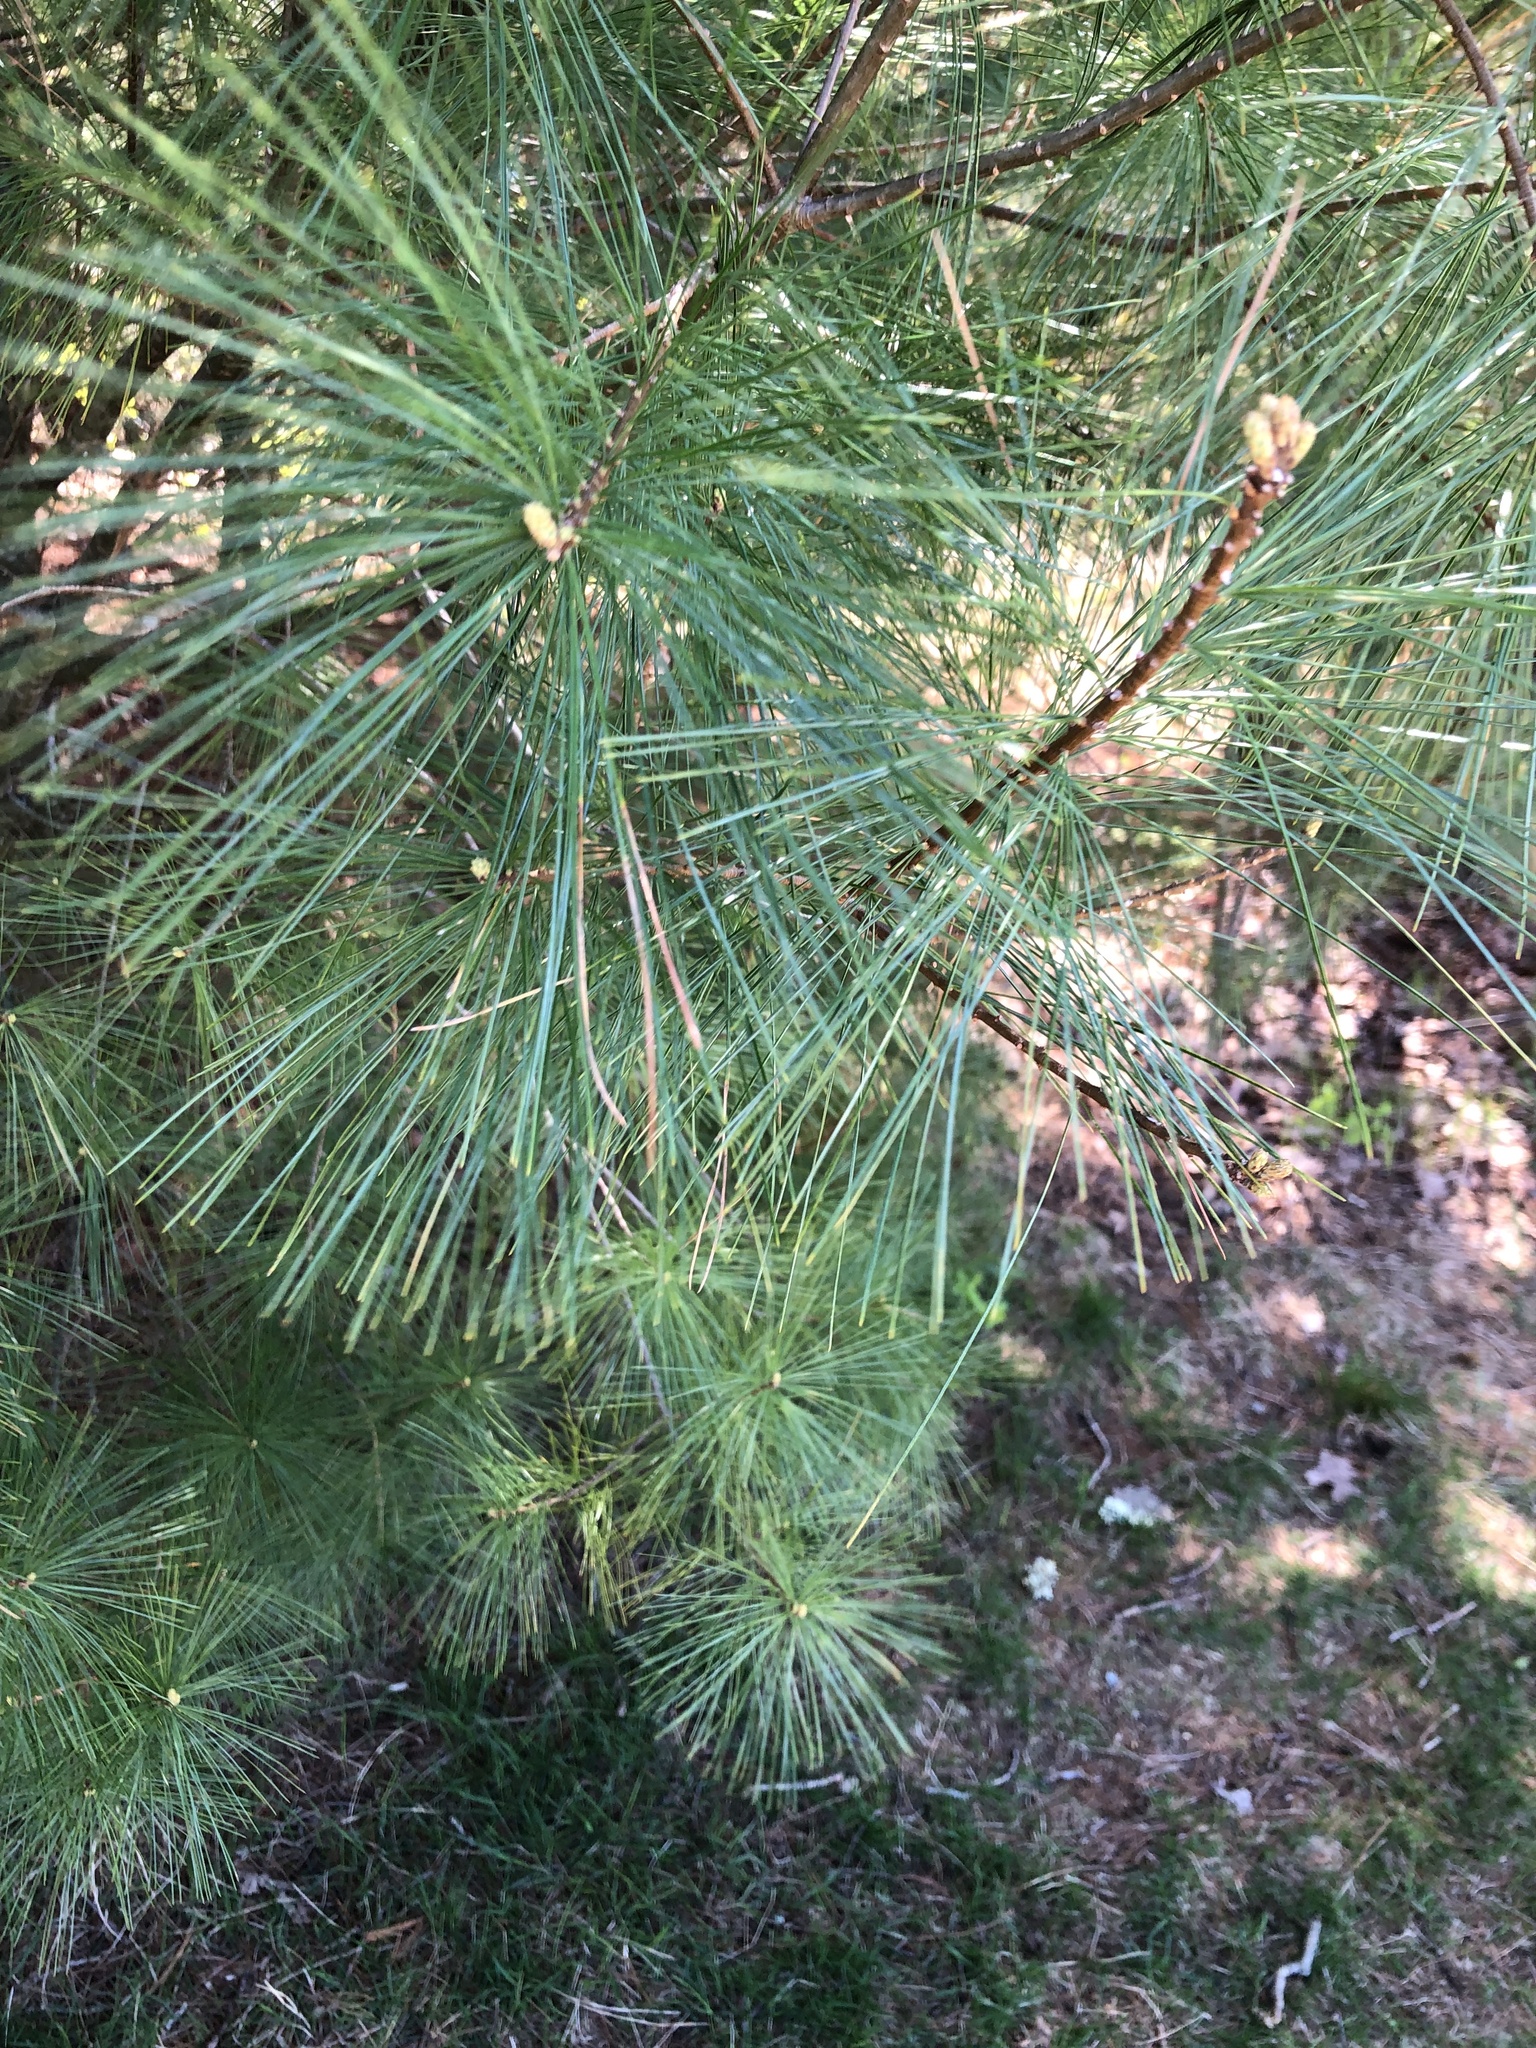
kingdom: Plantae
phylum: Tracheophyta
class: Pinopsida
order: Pinales
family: Pinaceae
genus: Pinus
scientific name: Pinus strobus
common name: Weymouth pine
